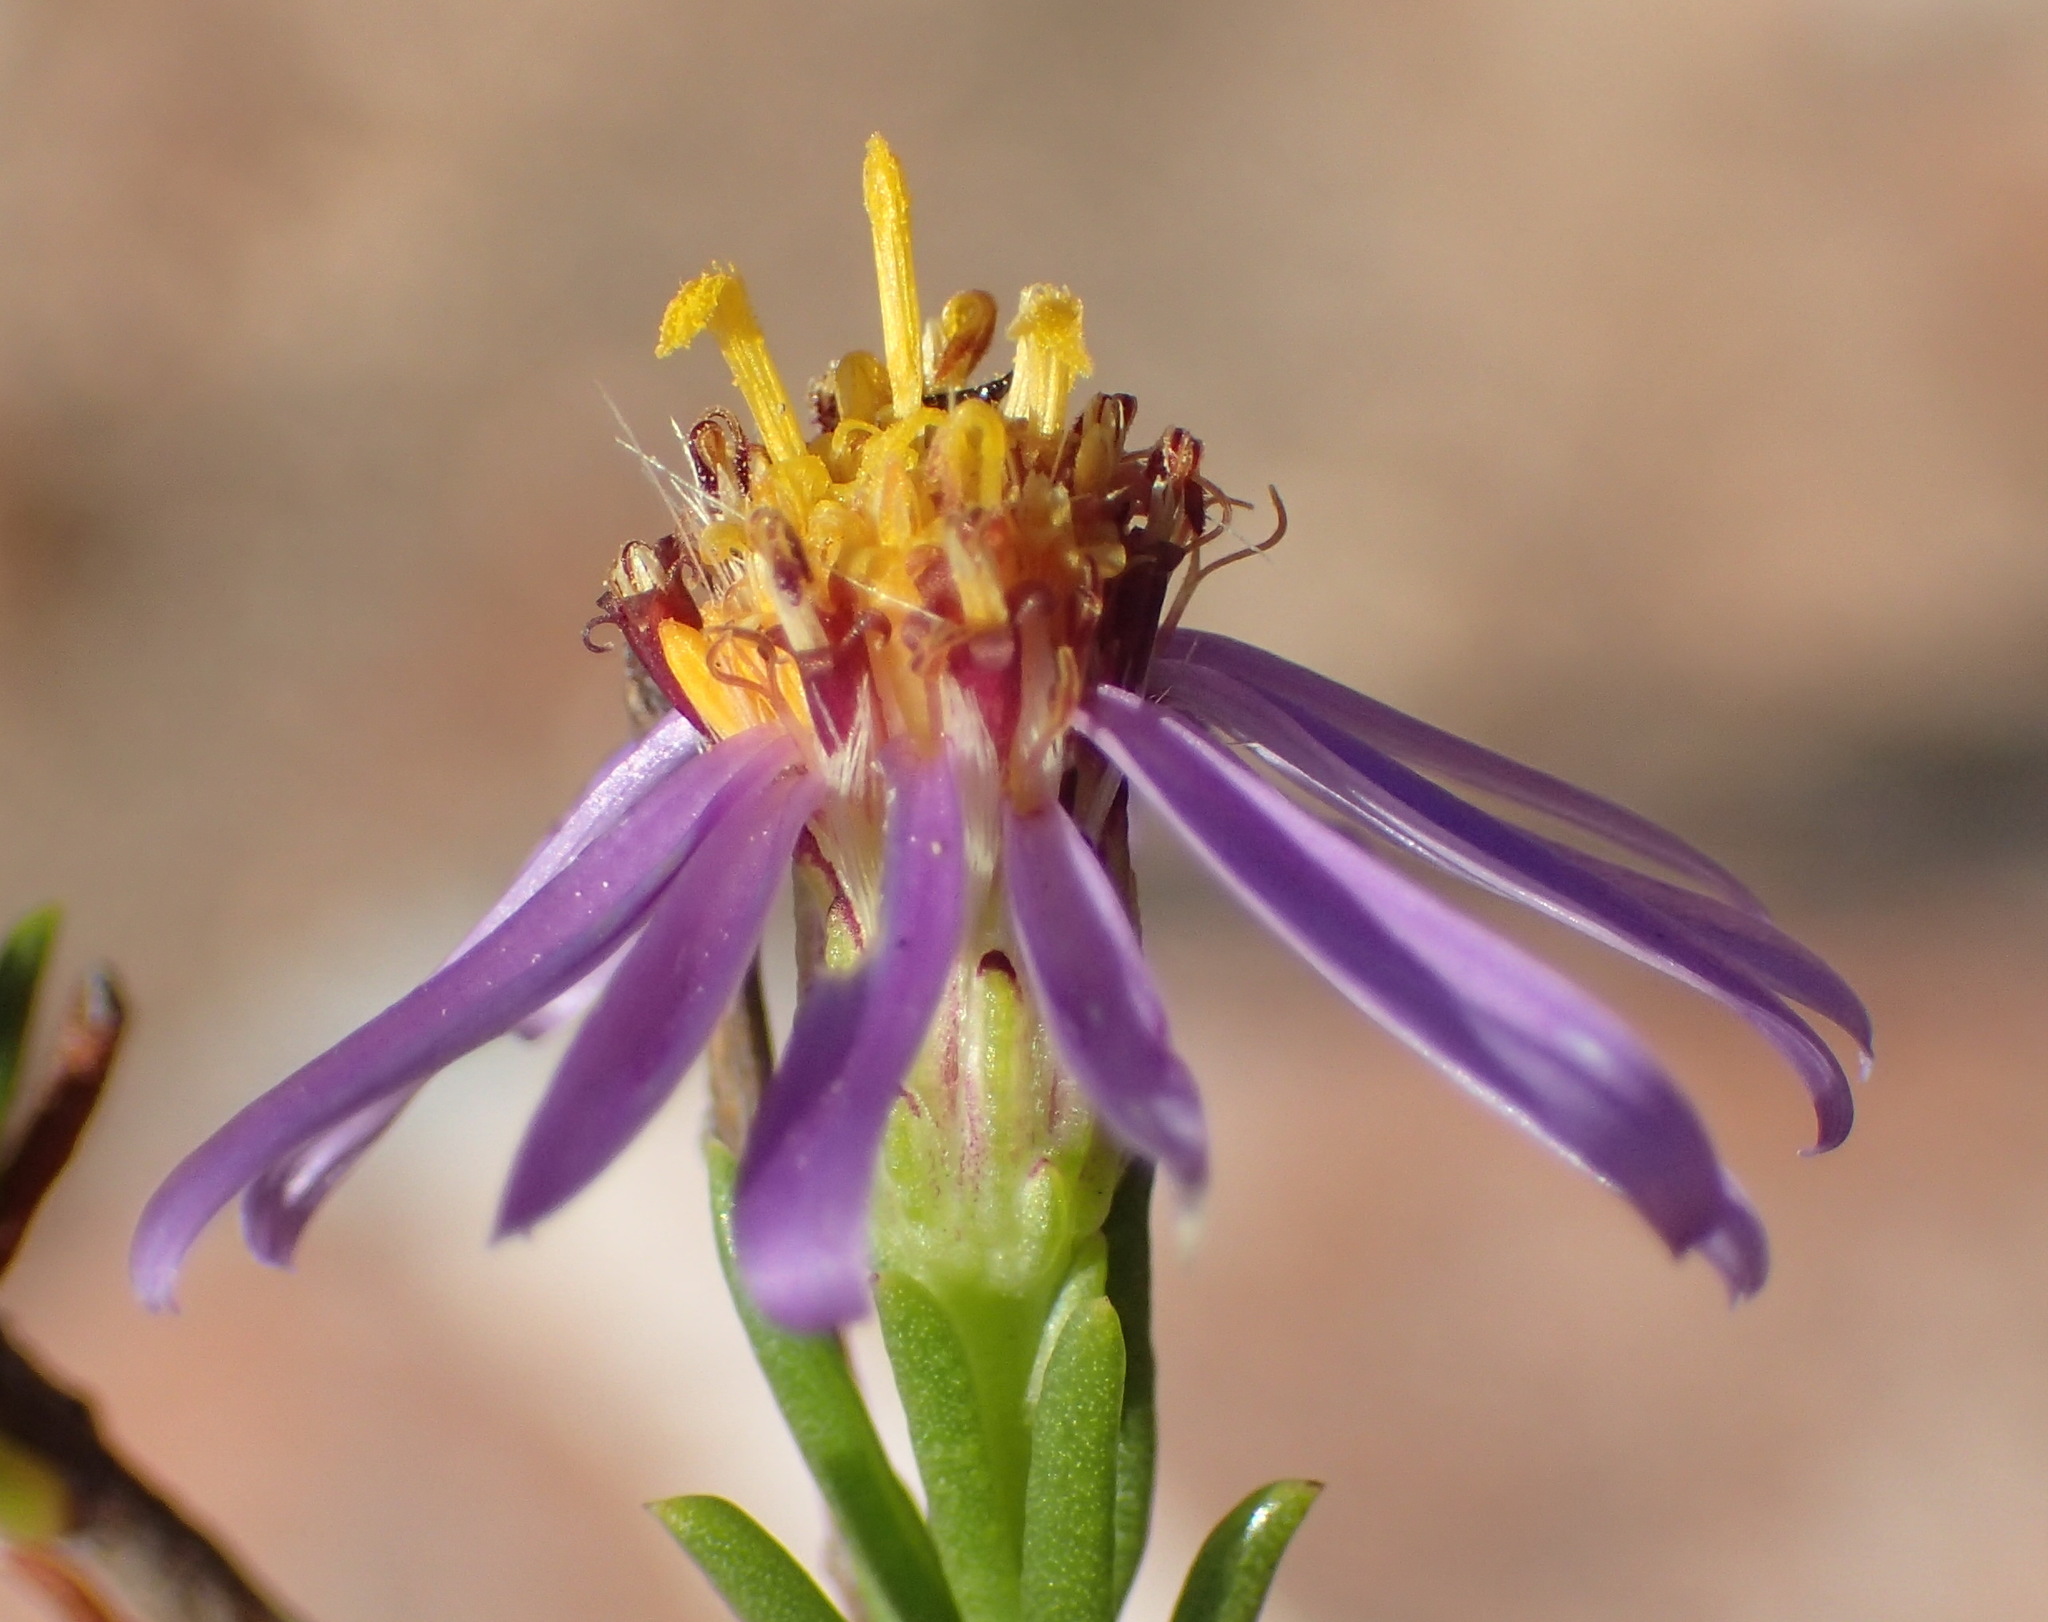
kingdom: Plantae
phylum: Tracheophyta
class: Magnoliopsida
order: Asterales
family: Asteraceae
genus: Felicia
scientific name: Felicia filifolia
